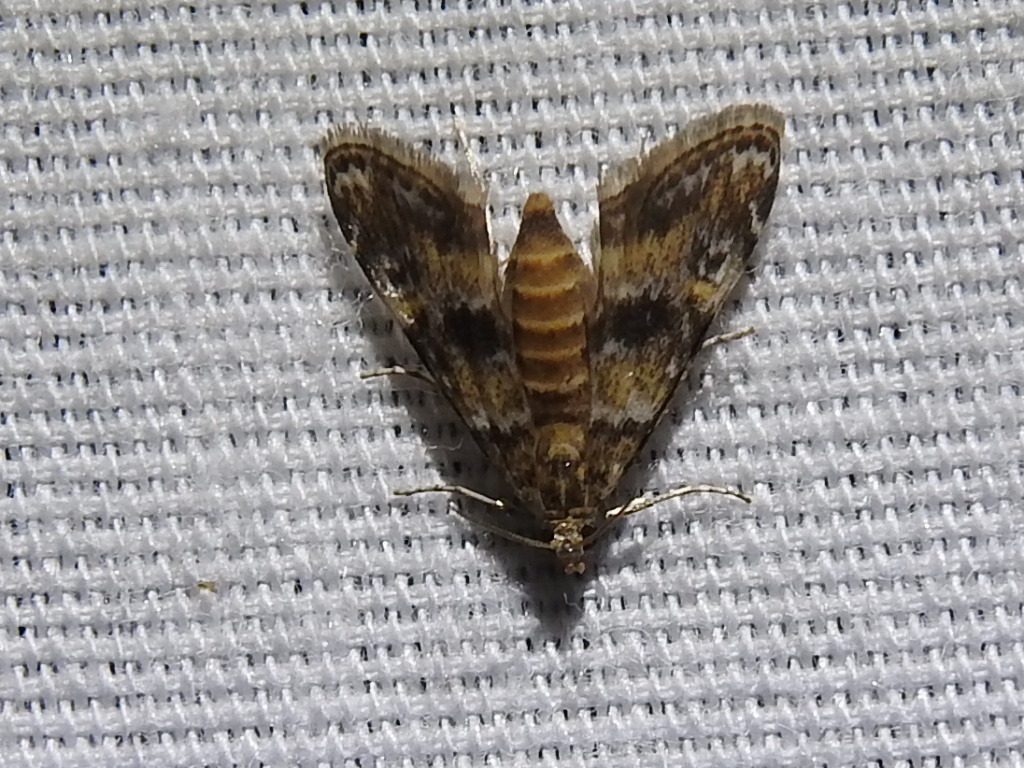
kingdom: Animalia
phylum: Arthropoda
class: Insecta
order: Lepidoptera
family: Crambidae
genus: Elophila
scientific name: Elophila obliteralis
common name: Waterlily leafcutter moth
